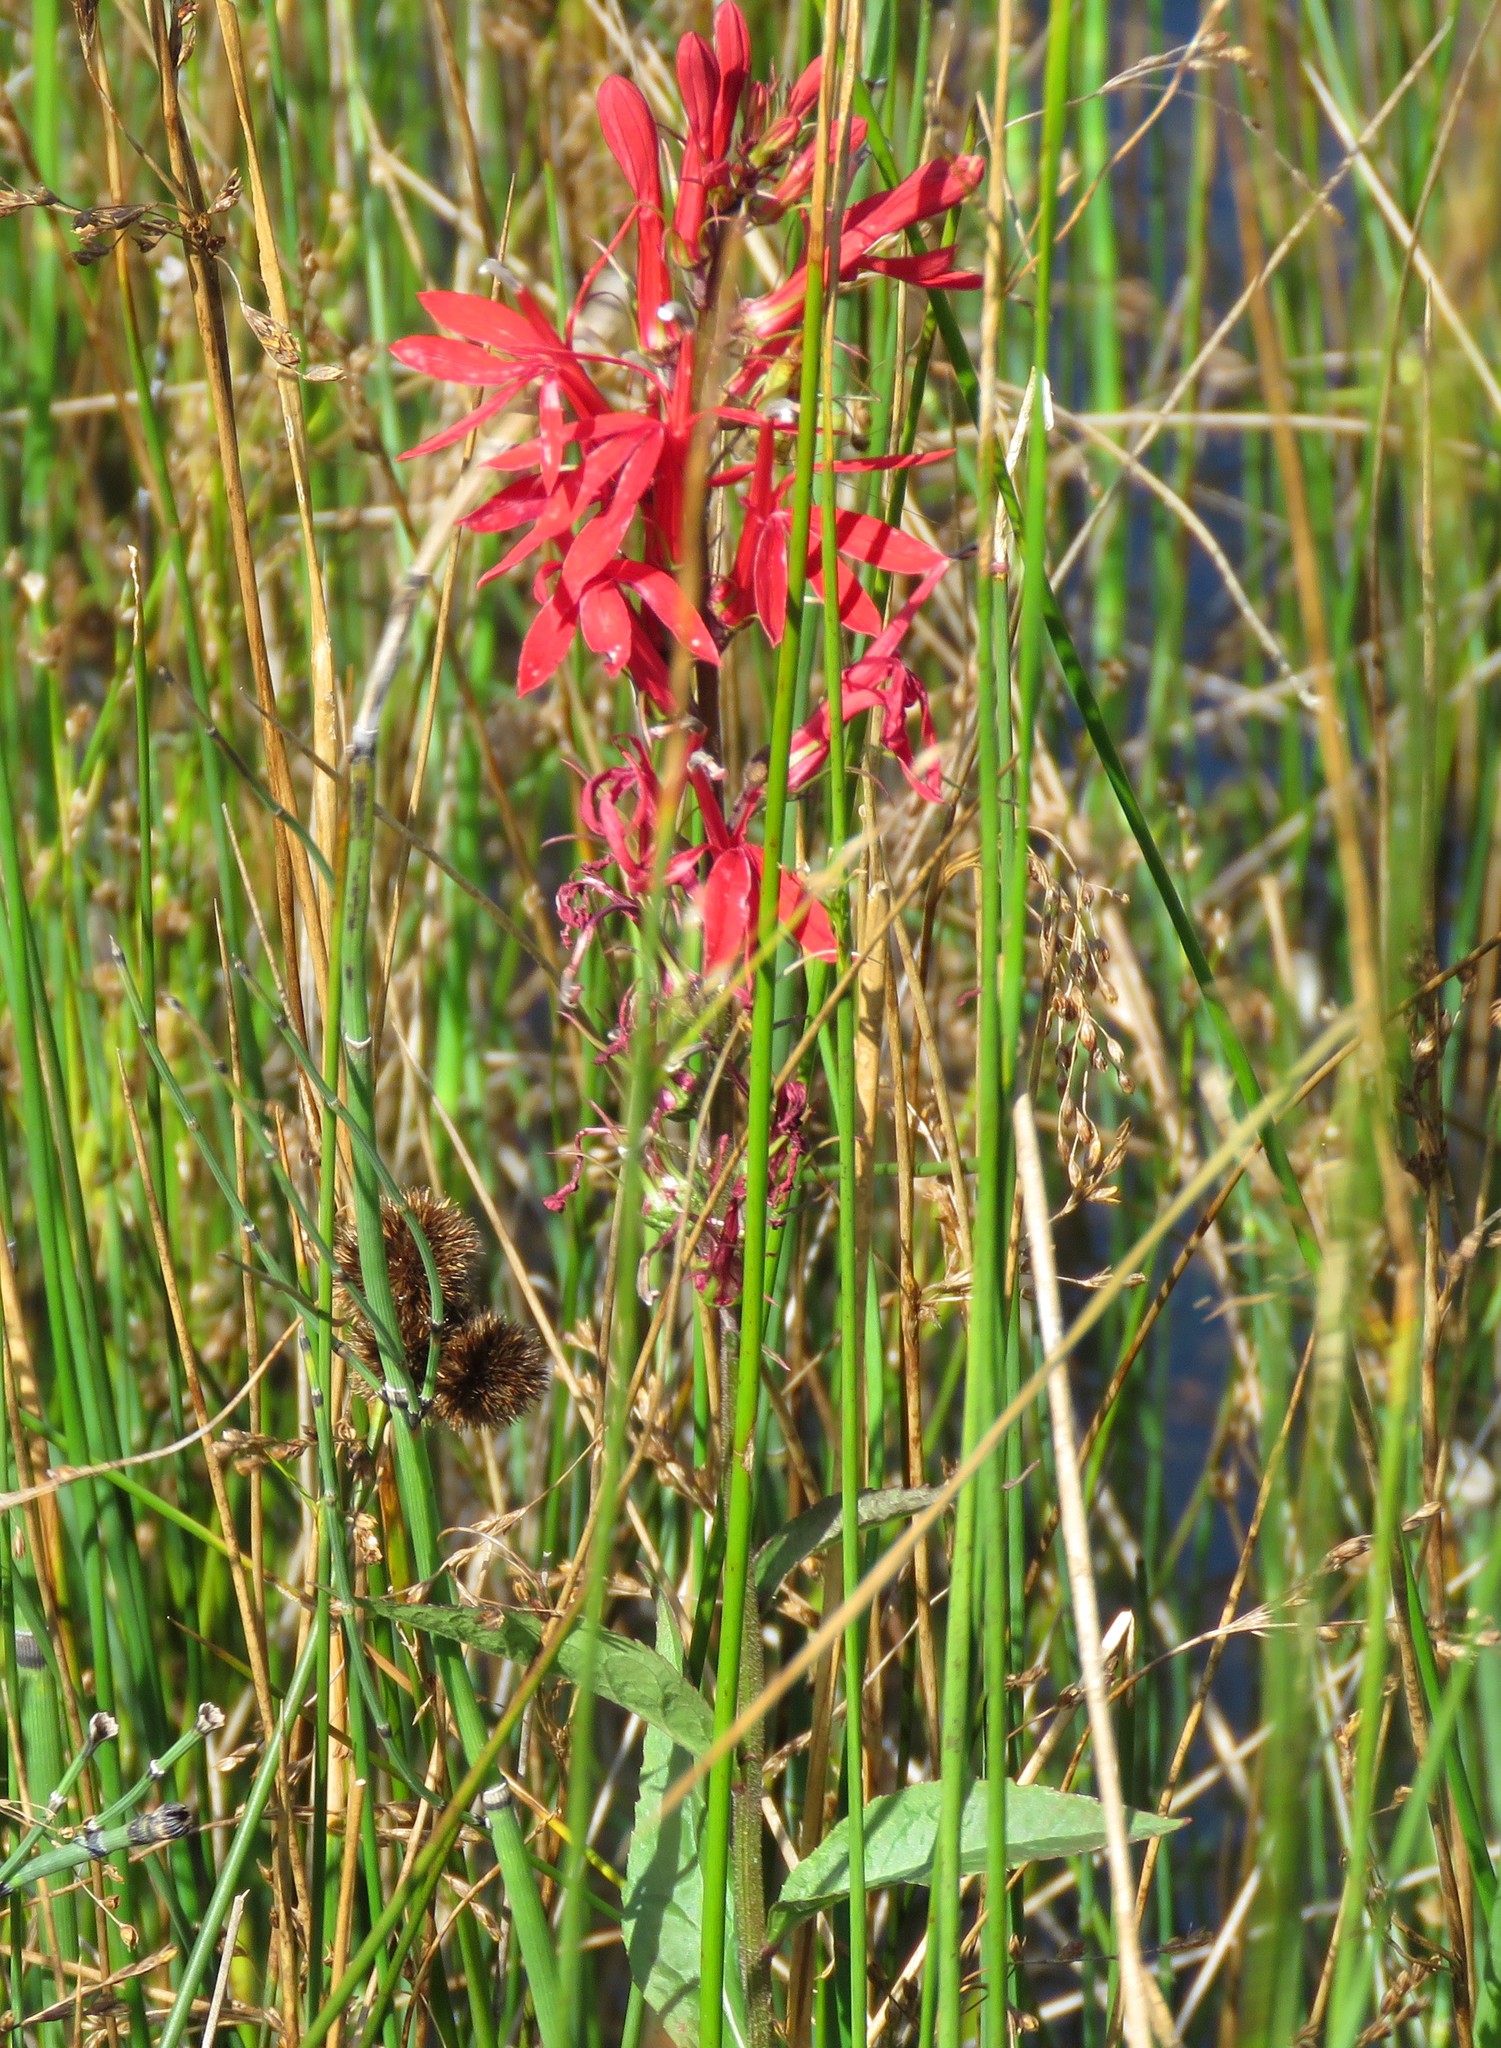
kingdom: Plantae
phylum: Tracheophyta
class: Magnoliopsida
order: Asterales
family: Campanulaceae
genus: Lobelia
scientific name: Lobelia cardinalis
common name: Cardinal flower
